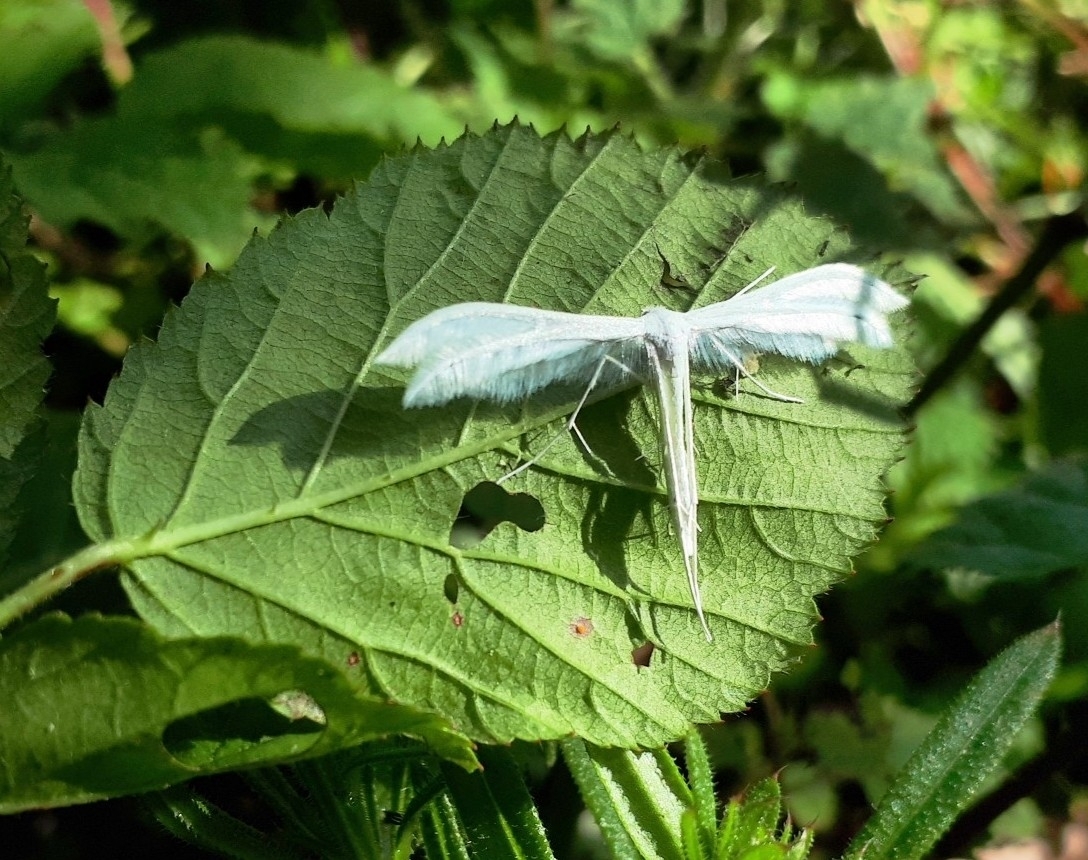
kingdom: Animalia
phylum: Arthropoda
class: Insecta
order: Lepidoptera
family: Pterophoridae
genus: Pterophorus
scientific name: Pterophorus pentadactyla
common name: White plume moth
